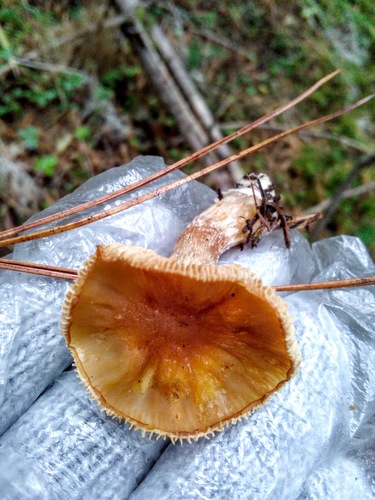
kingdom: Fungi
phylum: Basidiomycota
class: Agaricomycetes
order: Agaricales
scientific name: Agaricales
